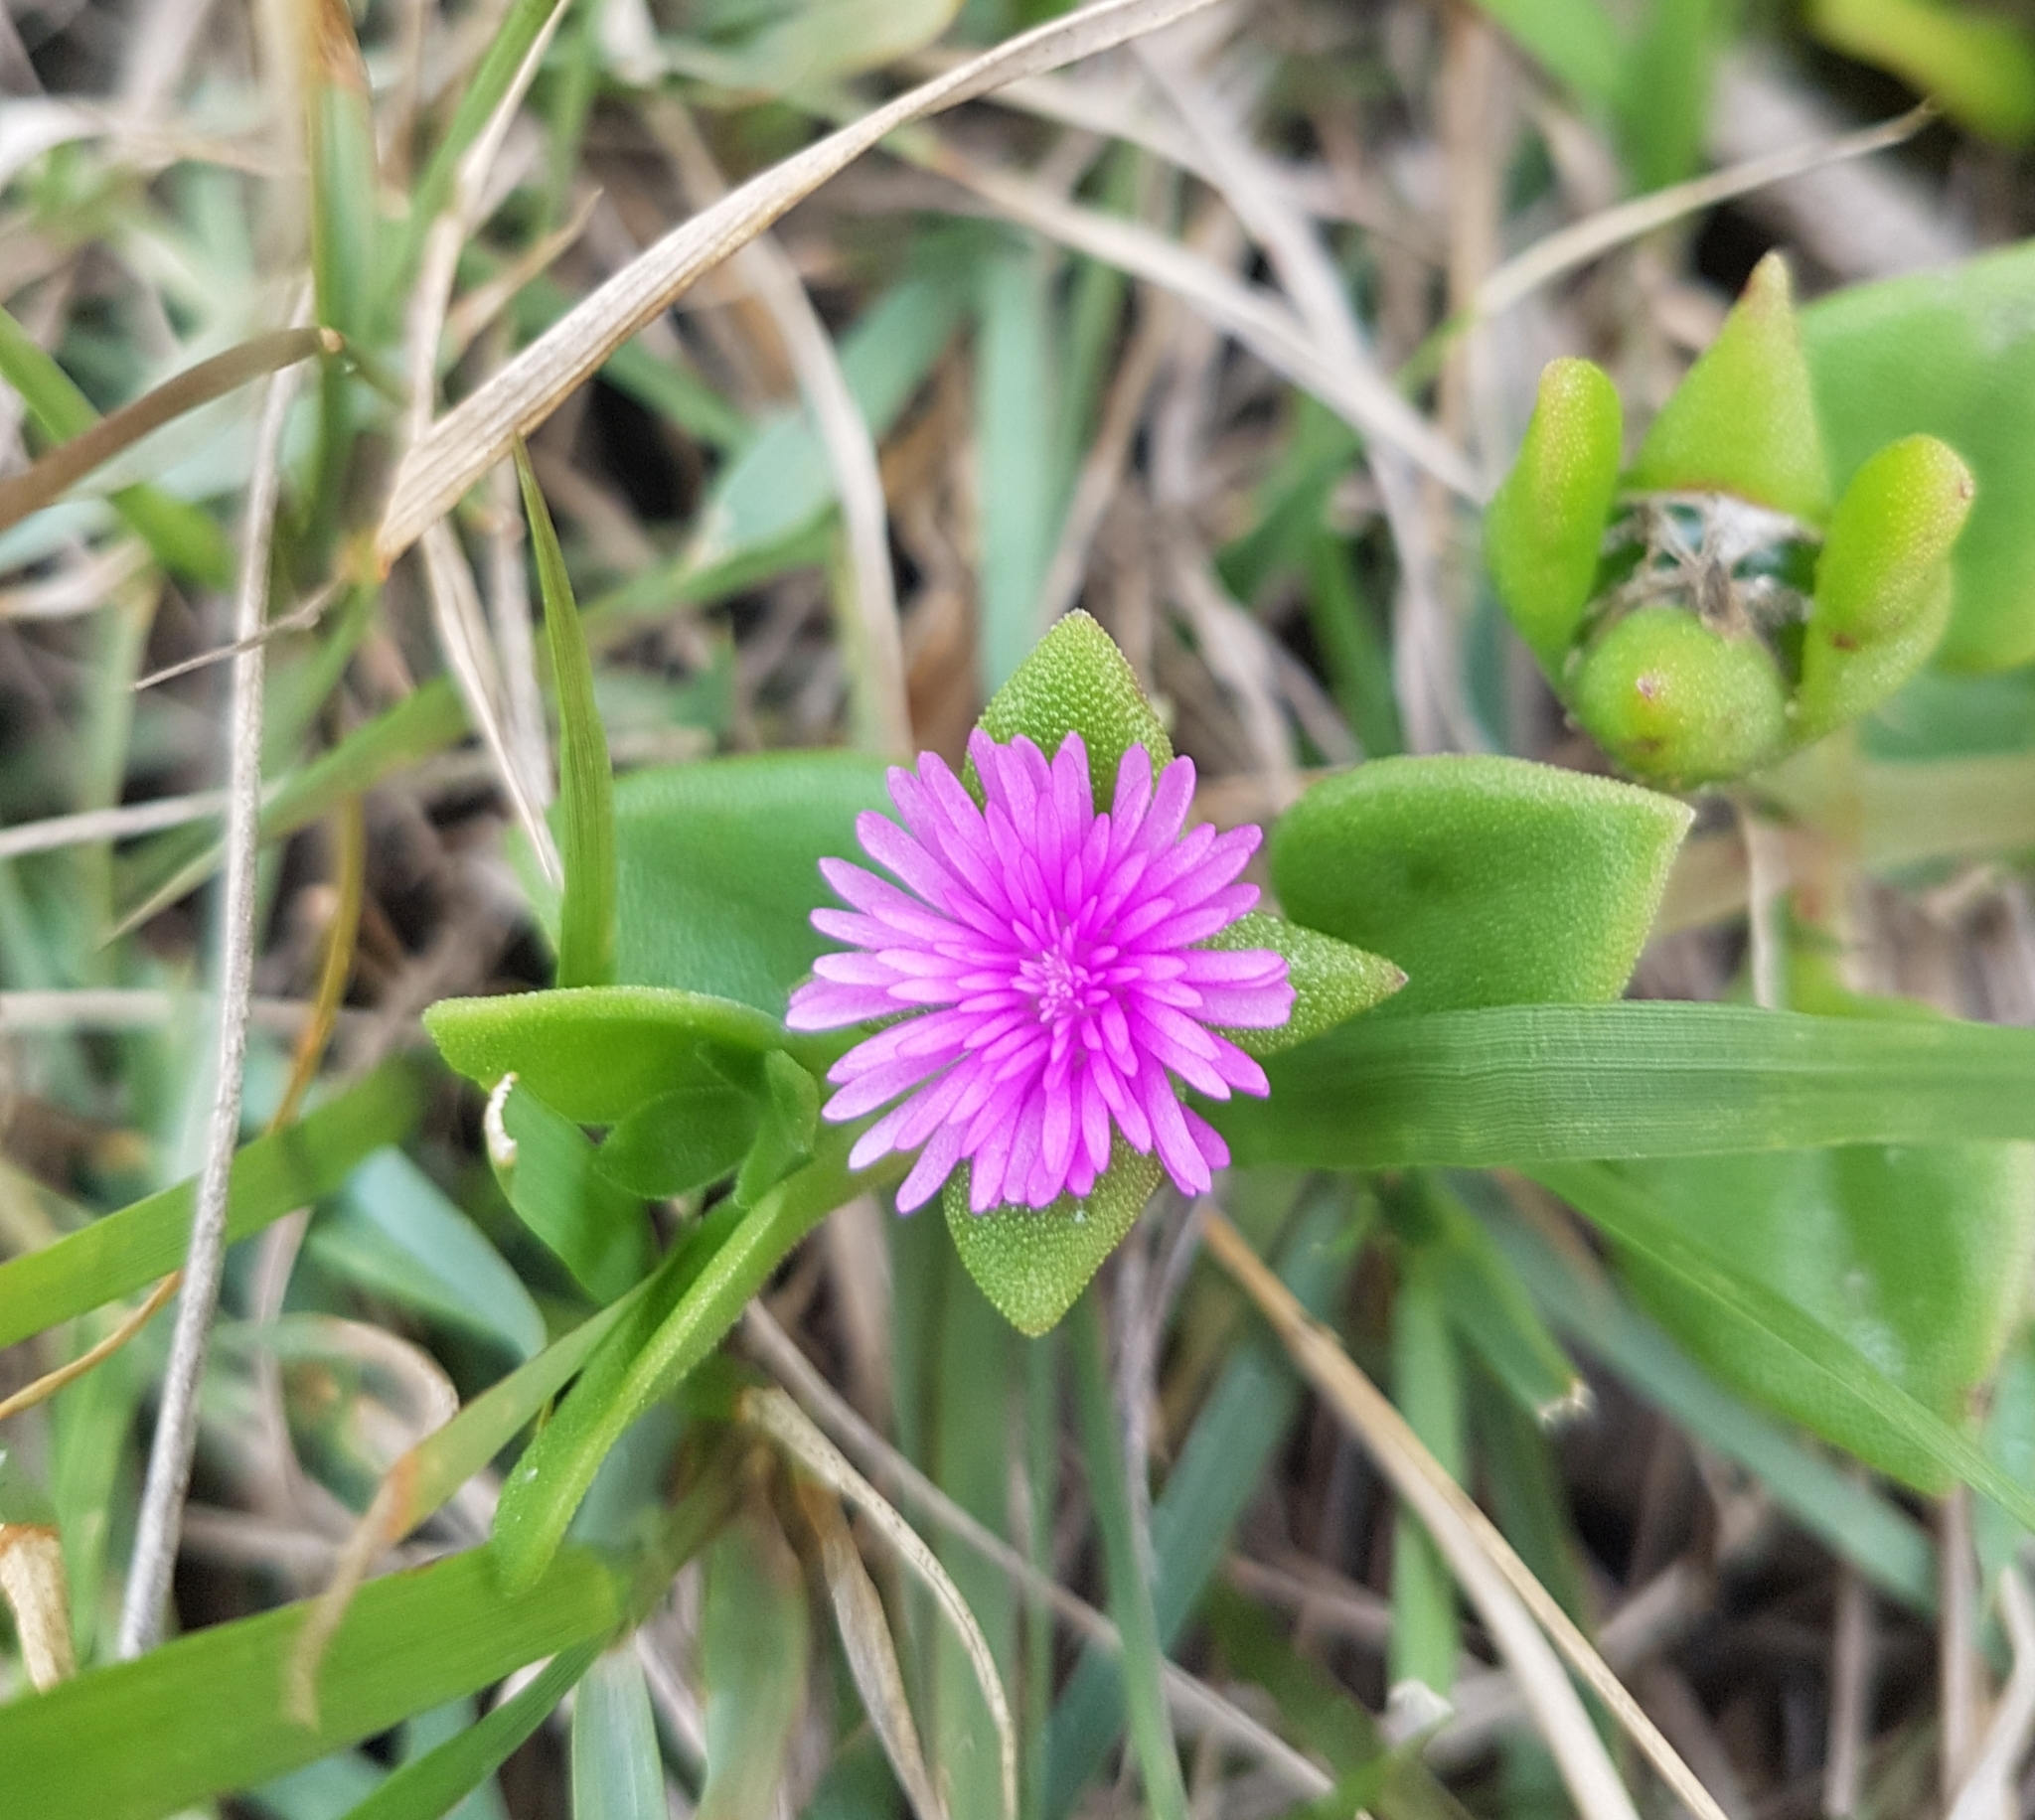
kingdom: Plantae
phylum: Tracheophyta
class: Magnoliopsida
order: Caryophyllales
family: Aizoaceae
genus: Mesembryanthemum
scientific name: Mesembryanthemum cordifolium
